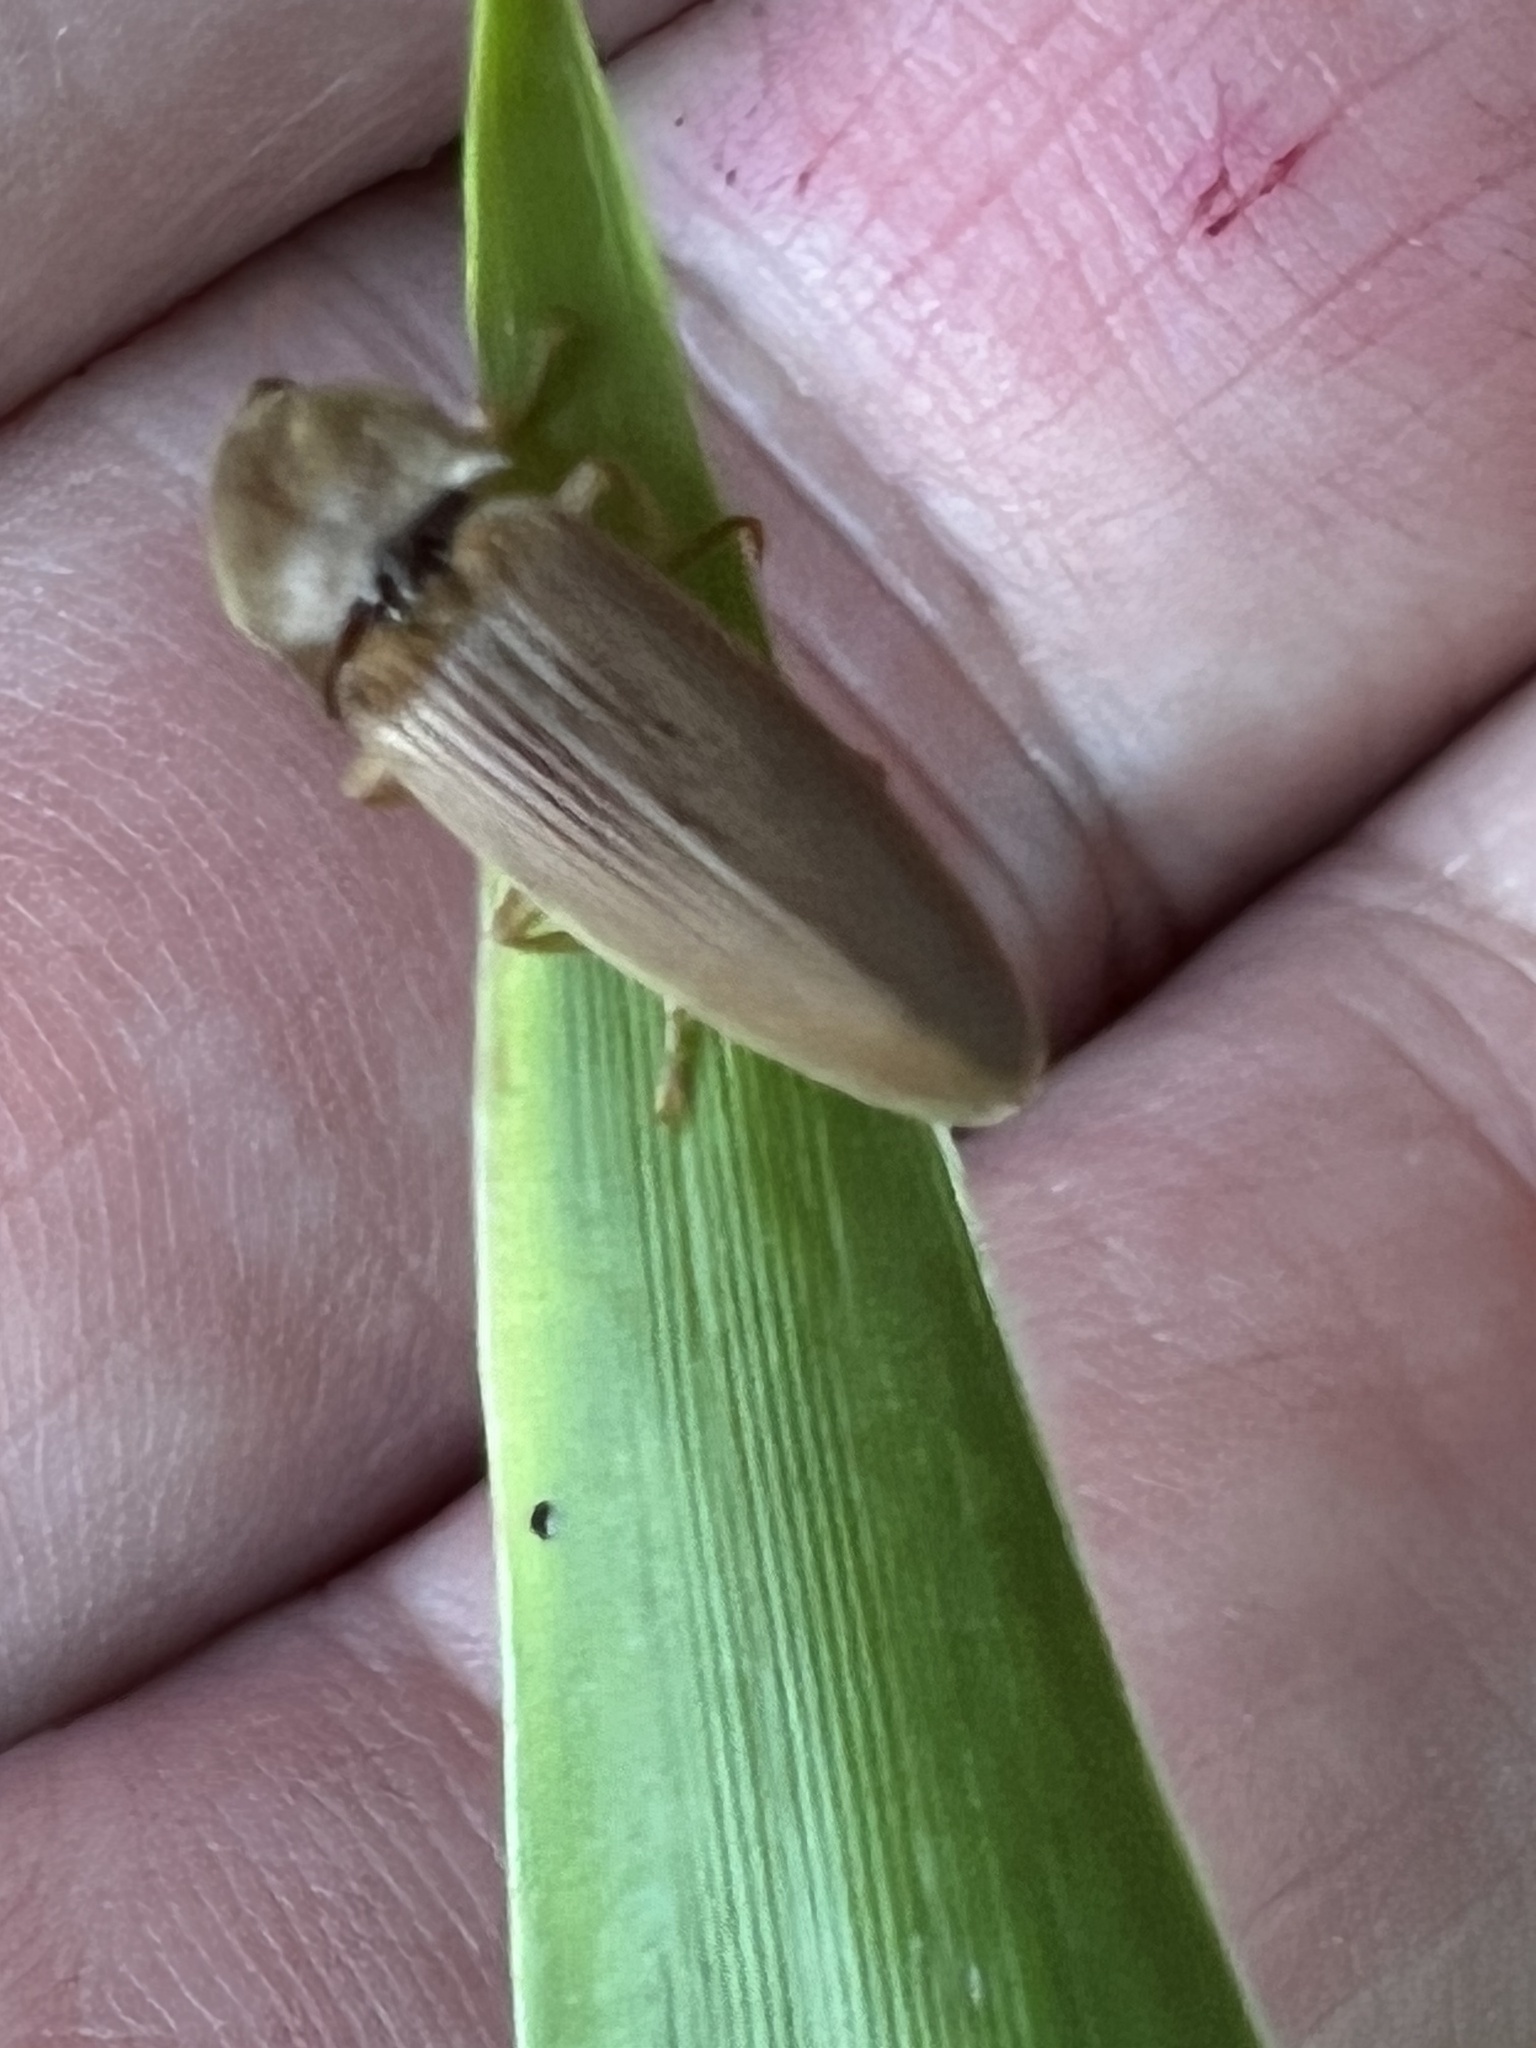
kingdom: Animalia
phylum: Arthropoda
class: Insecta
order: Coleoptera
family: Elateridae
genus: Monocrepidius
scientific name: Monocrepidius lividus
